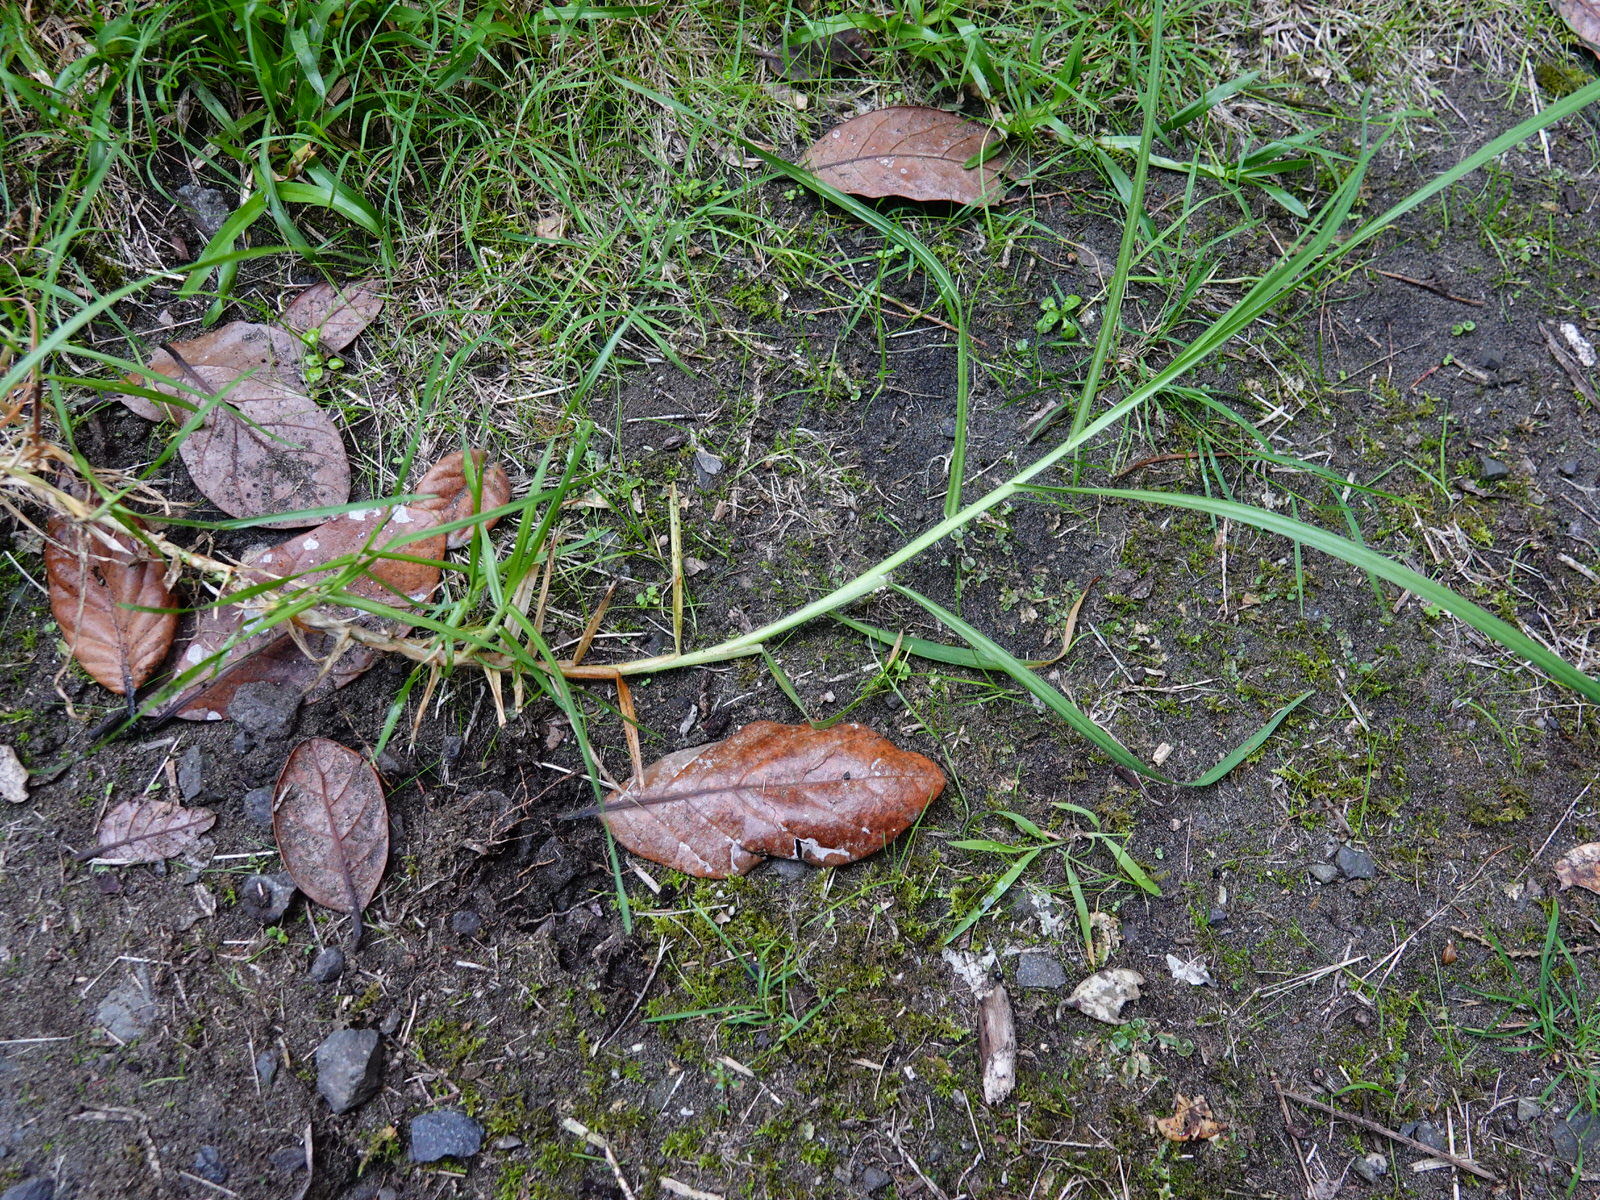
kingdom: Plantae
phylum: Tracheophyta
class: Liliopsida
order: Poales
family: Poaceae
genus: Cenchrus
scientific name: Cenchrus clandestinus
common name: Kikuyugrass
